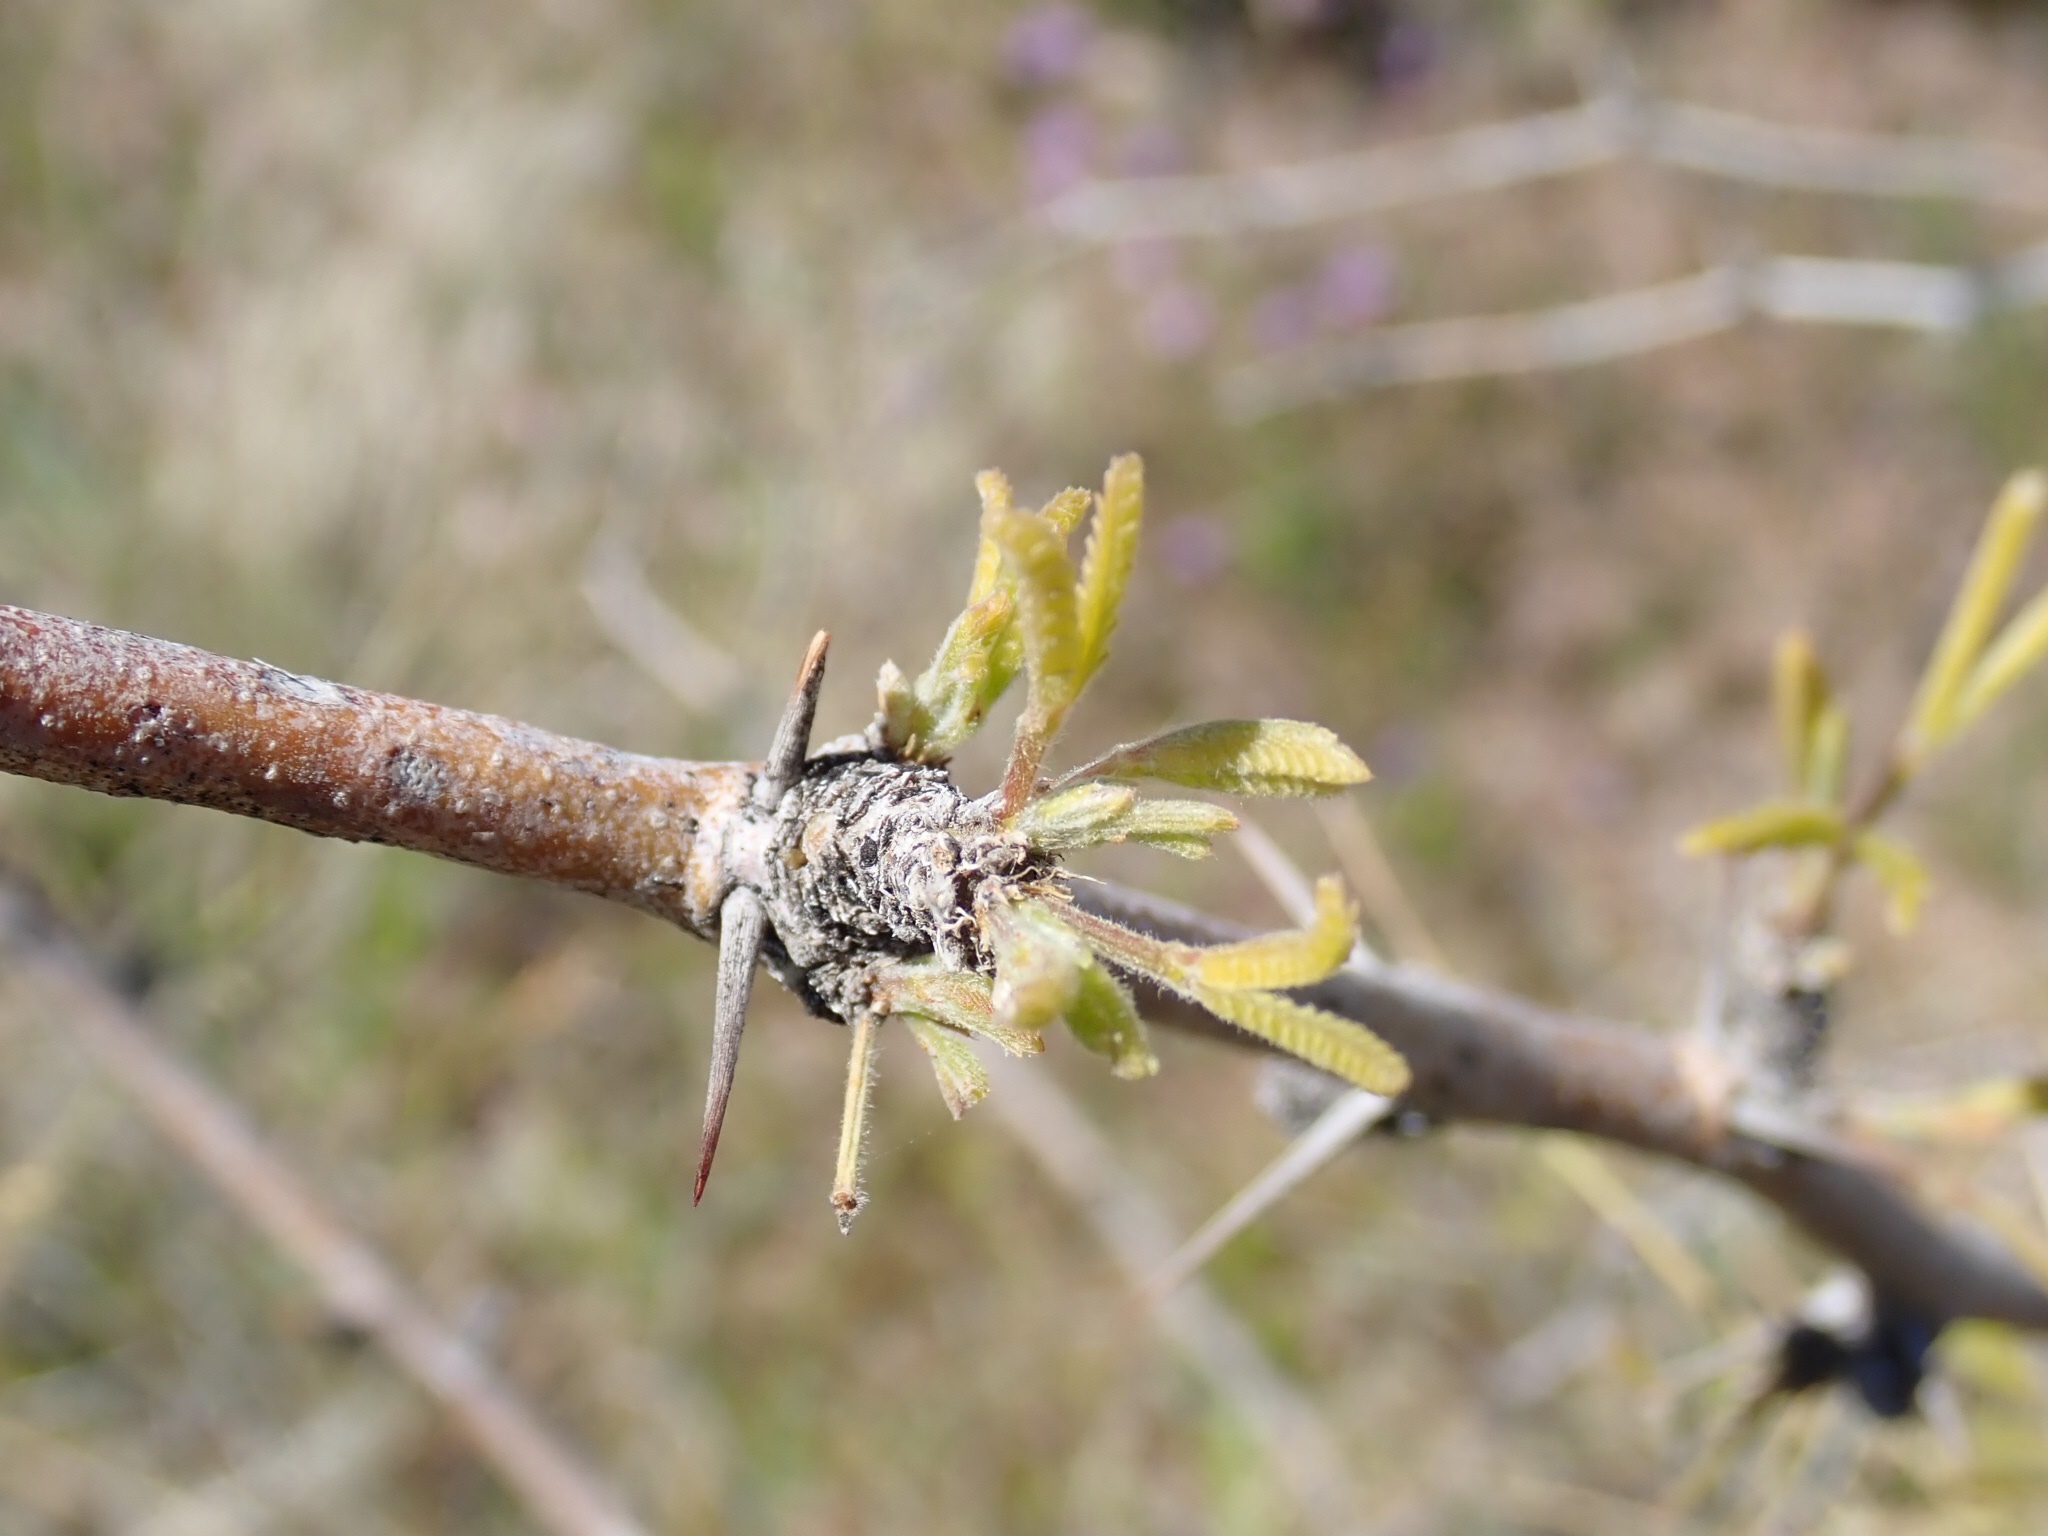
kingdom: Plantae
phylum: Tracheophyta
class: Magnoliopsida
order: Fabales
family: Fabaceae
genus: Prosopis
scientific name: Prosopis velutina
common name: Velvet mesquite
